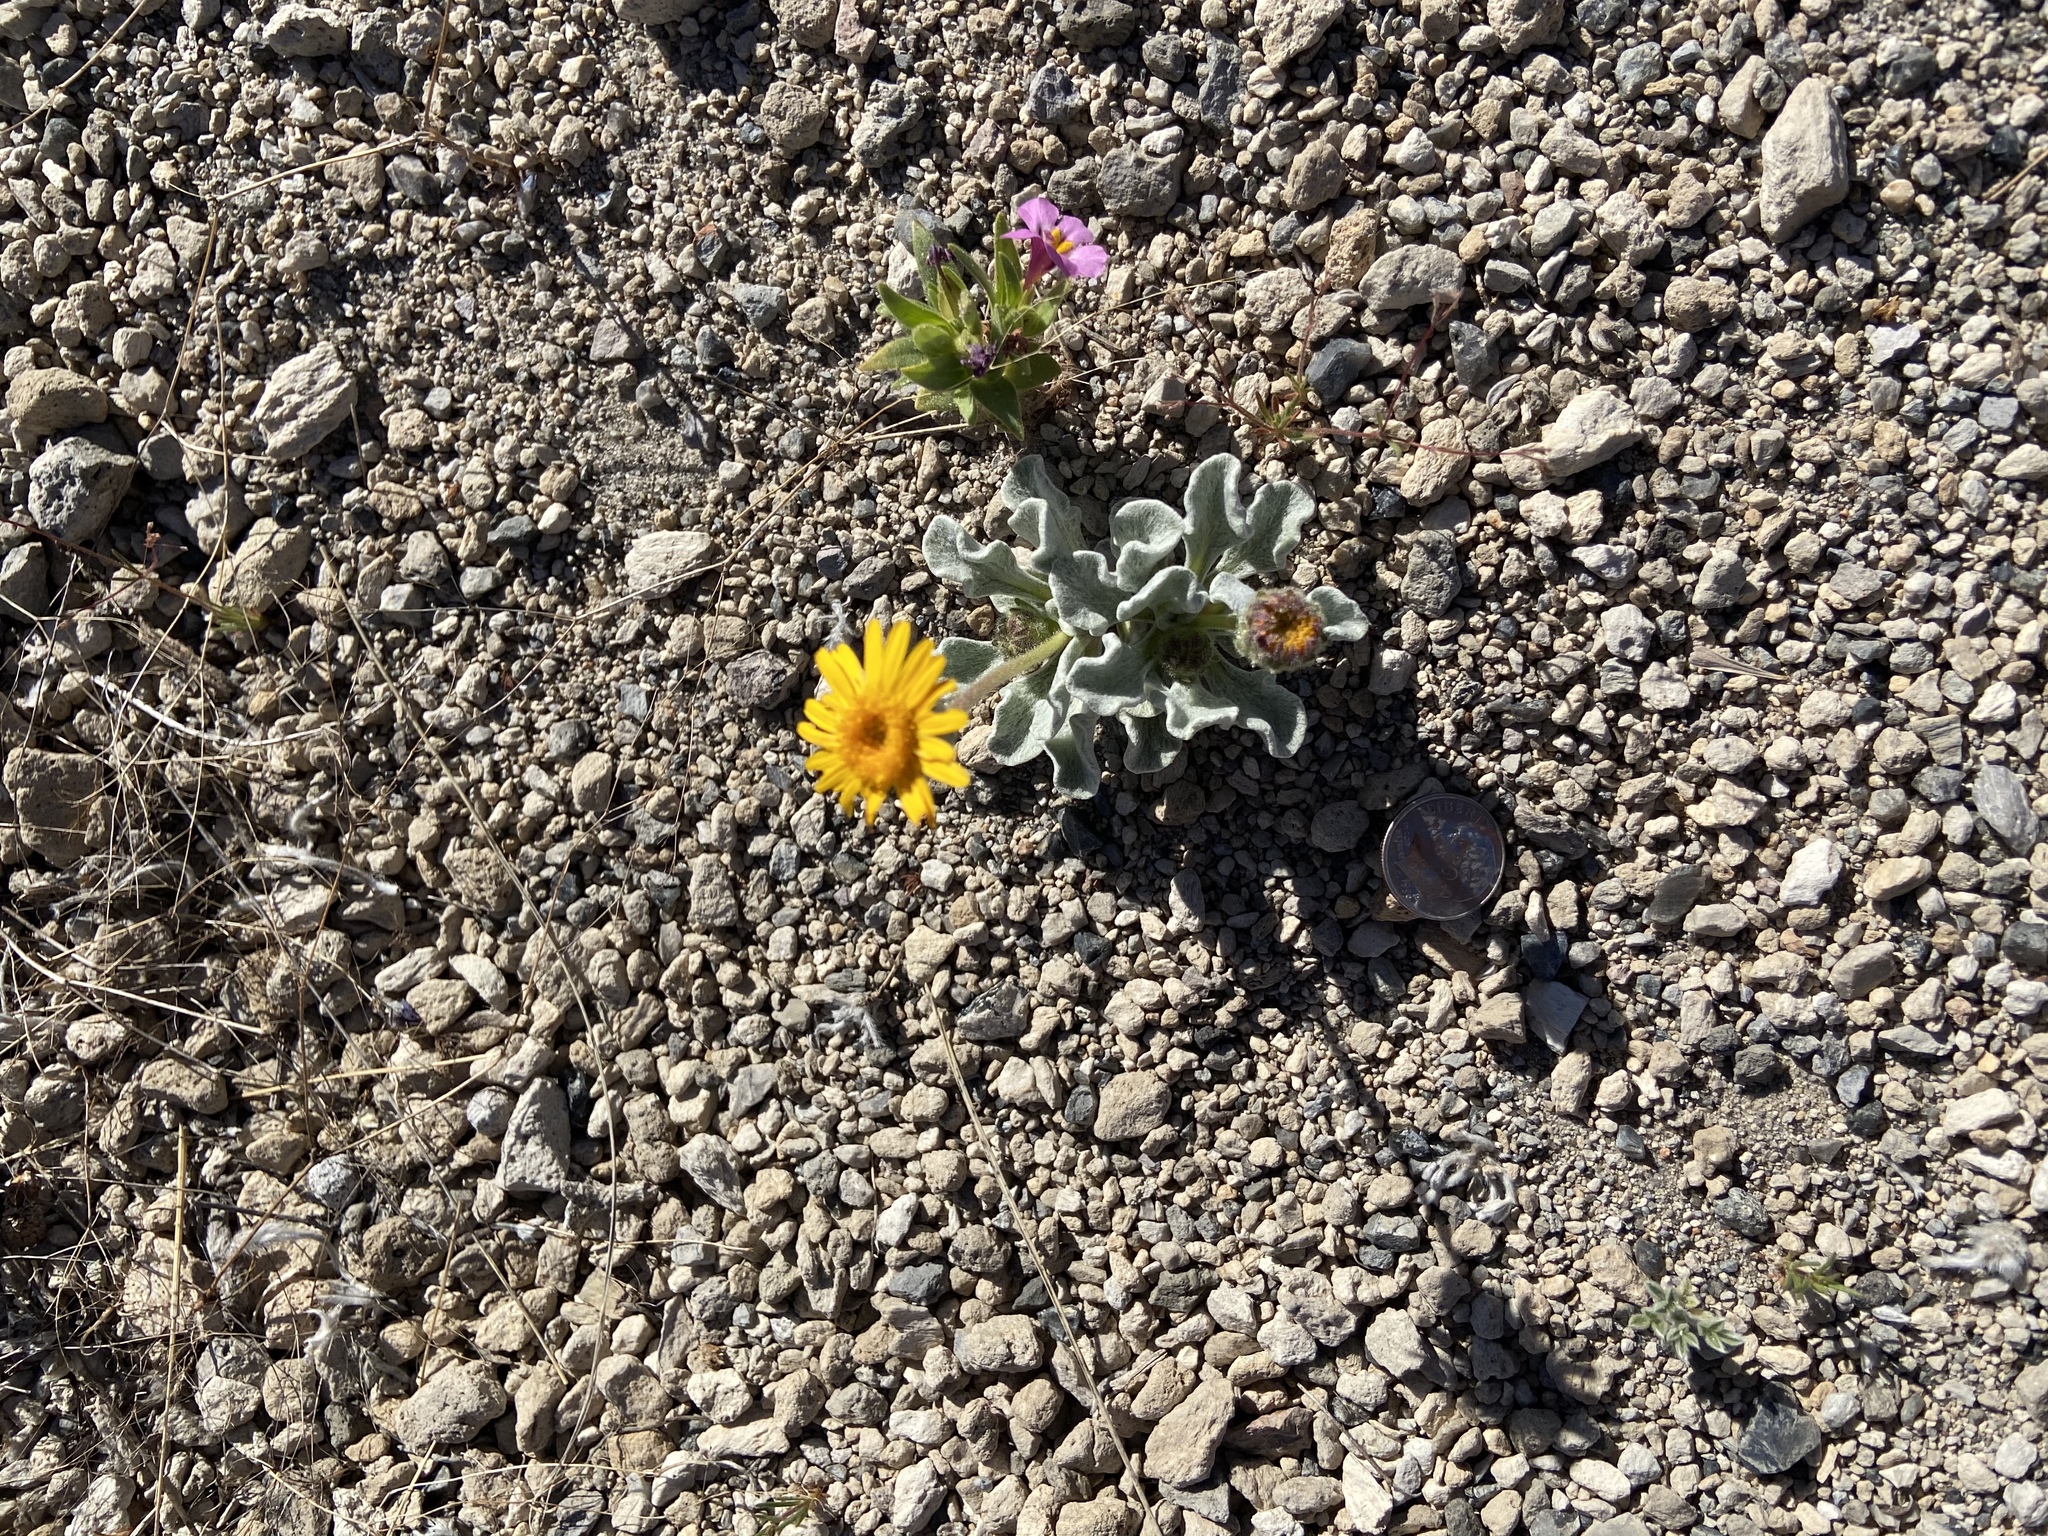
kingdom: Plantae
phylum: Tracheophyta
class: Magnoliopsida
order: Asterales
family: Asteraceae
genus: Hulsea
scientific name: Hulsea vestita
